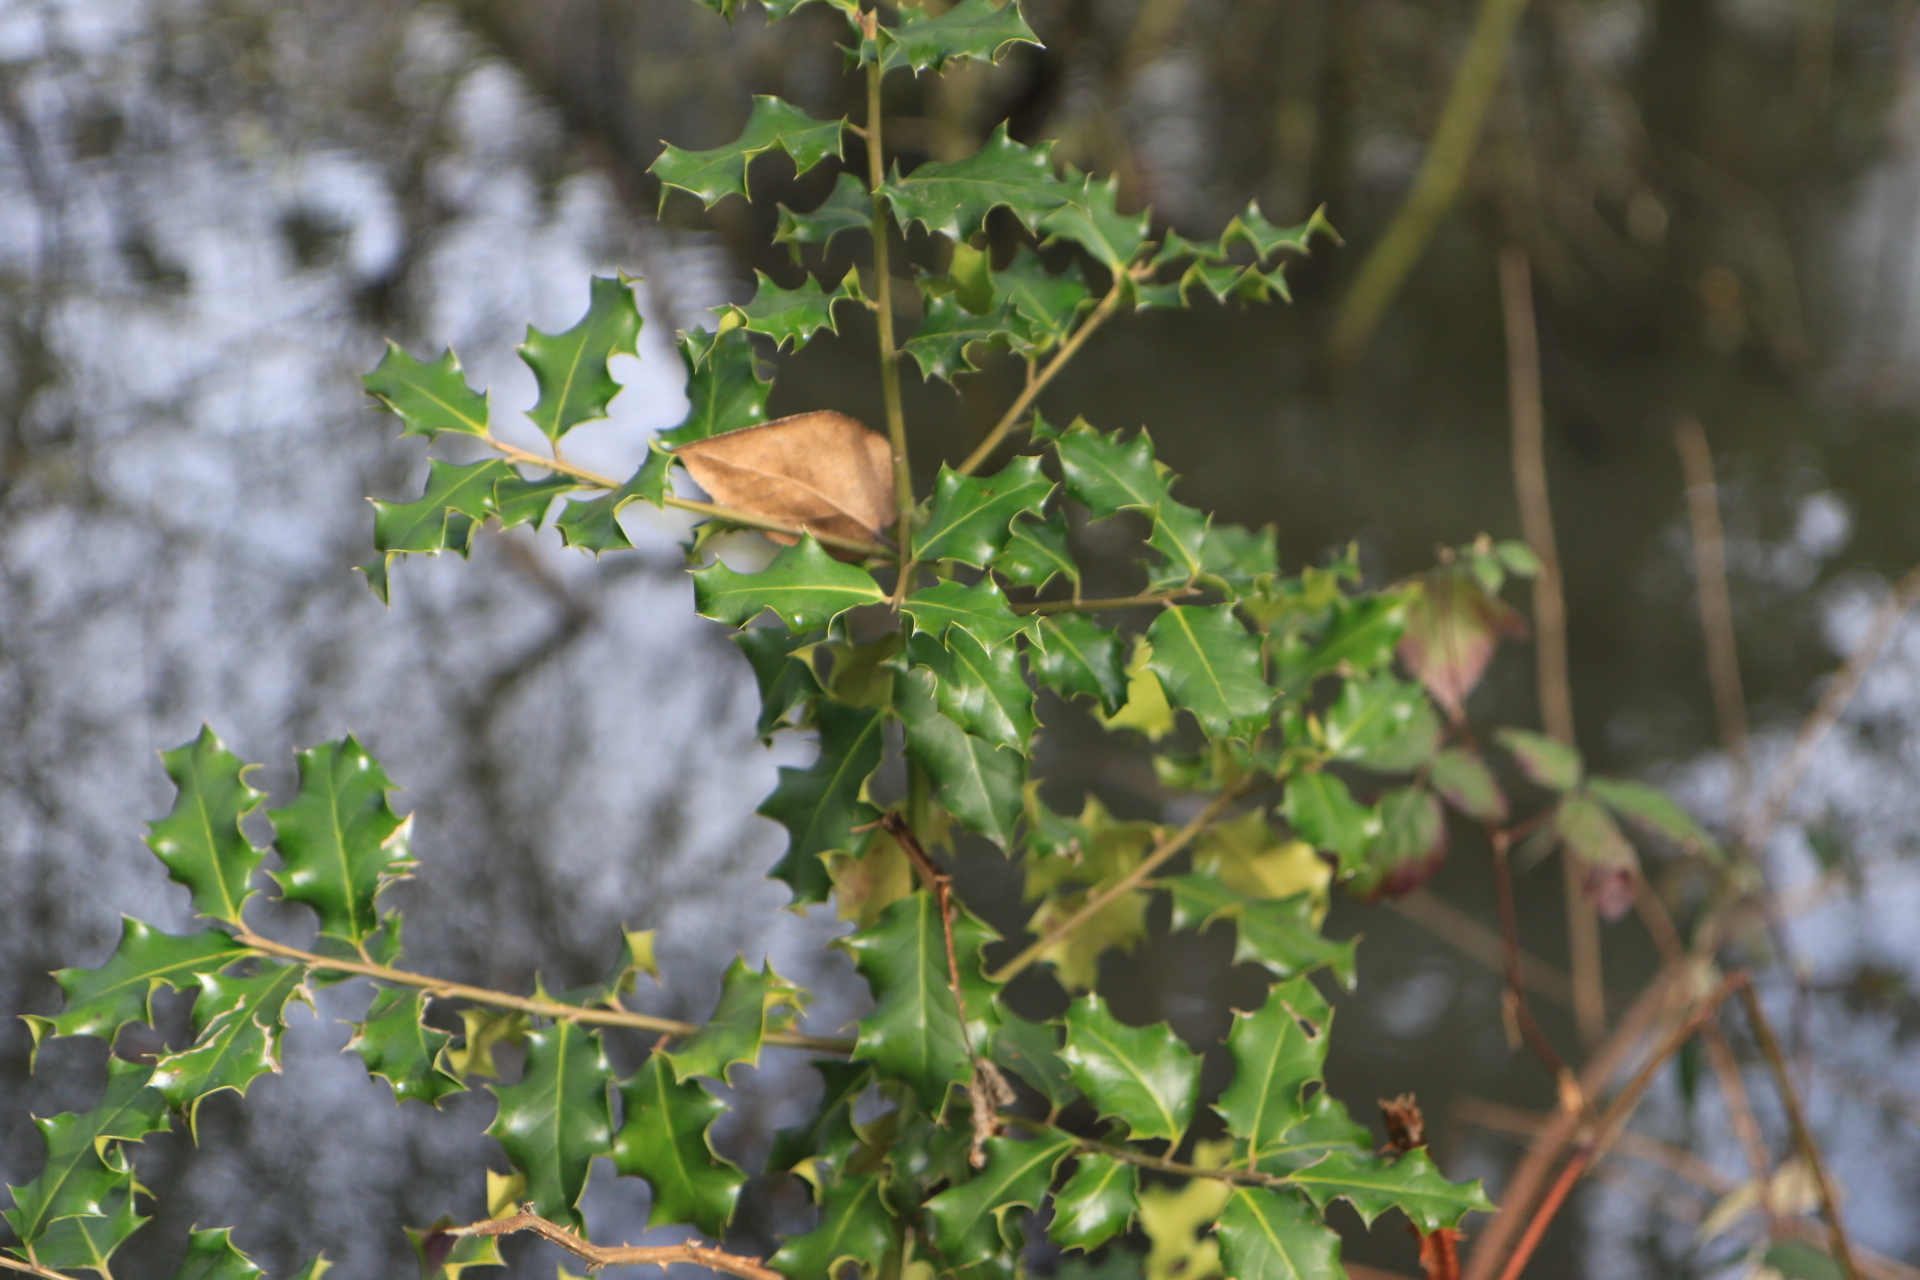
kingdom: Plantae
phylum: Tracheophyta
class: Magnoliopsida
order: Aquifoliales
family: Aquifoliaceae
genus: Ilex
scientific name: Ilex aquifolium
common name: English holly
